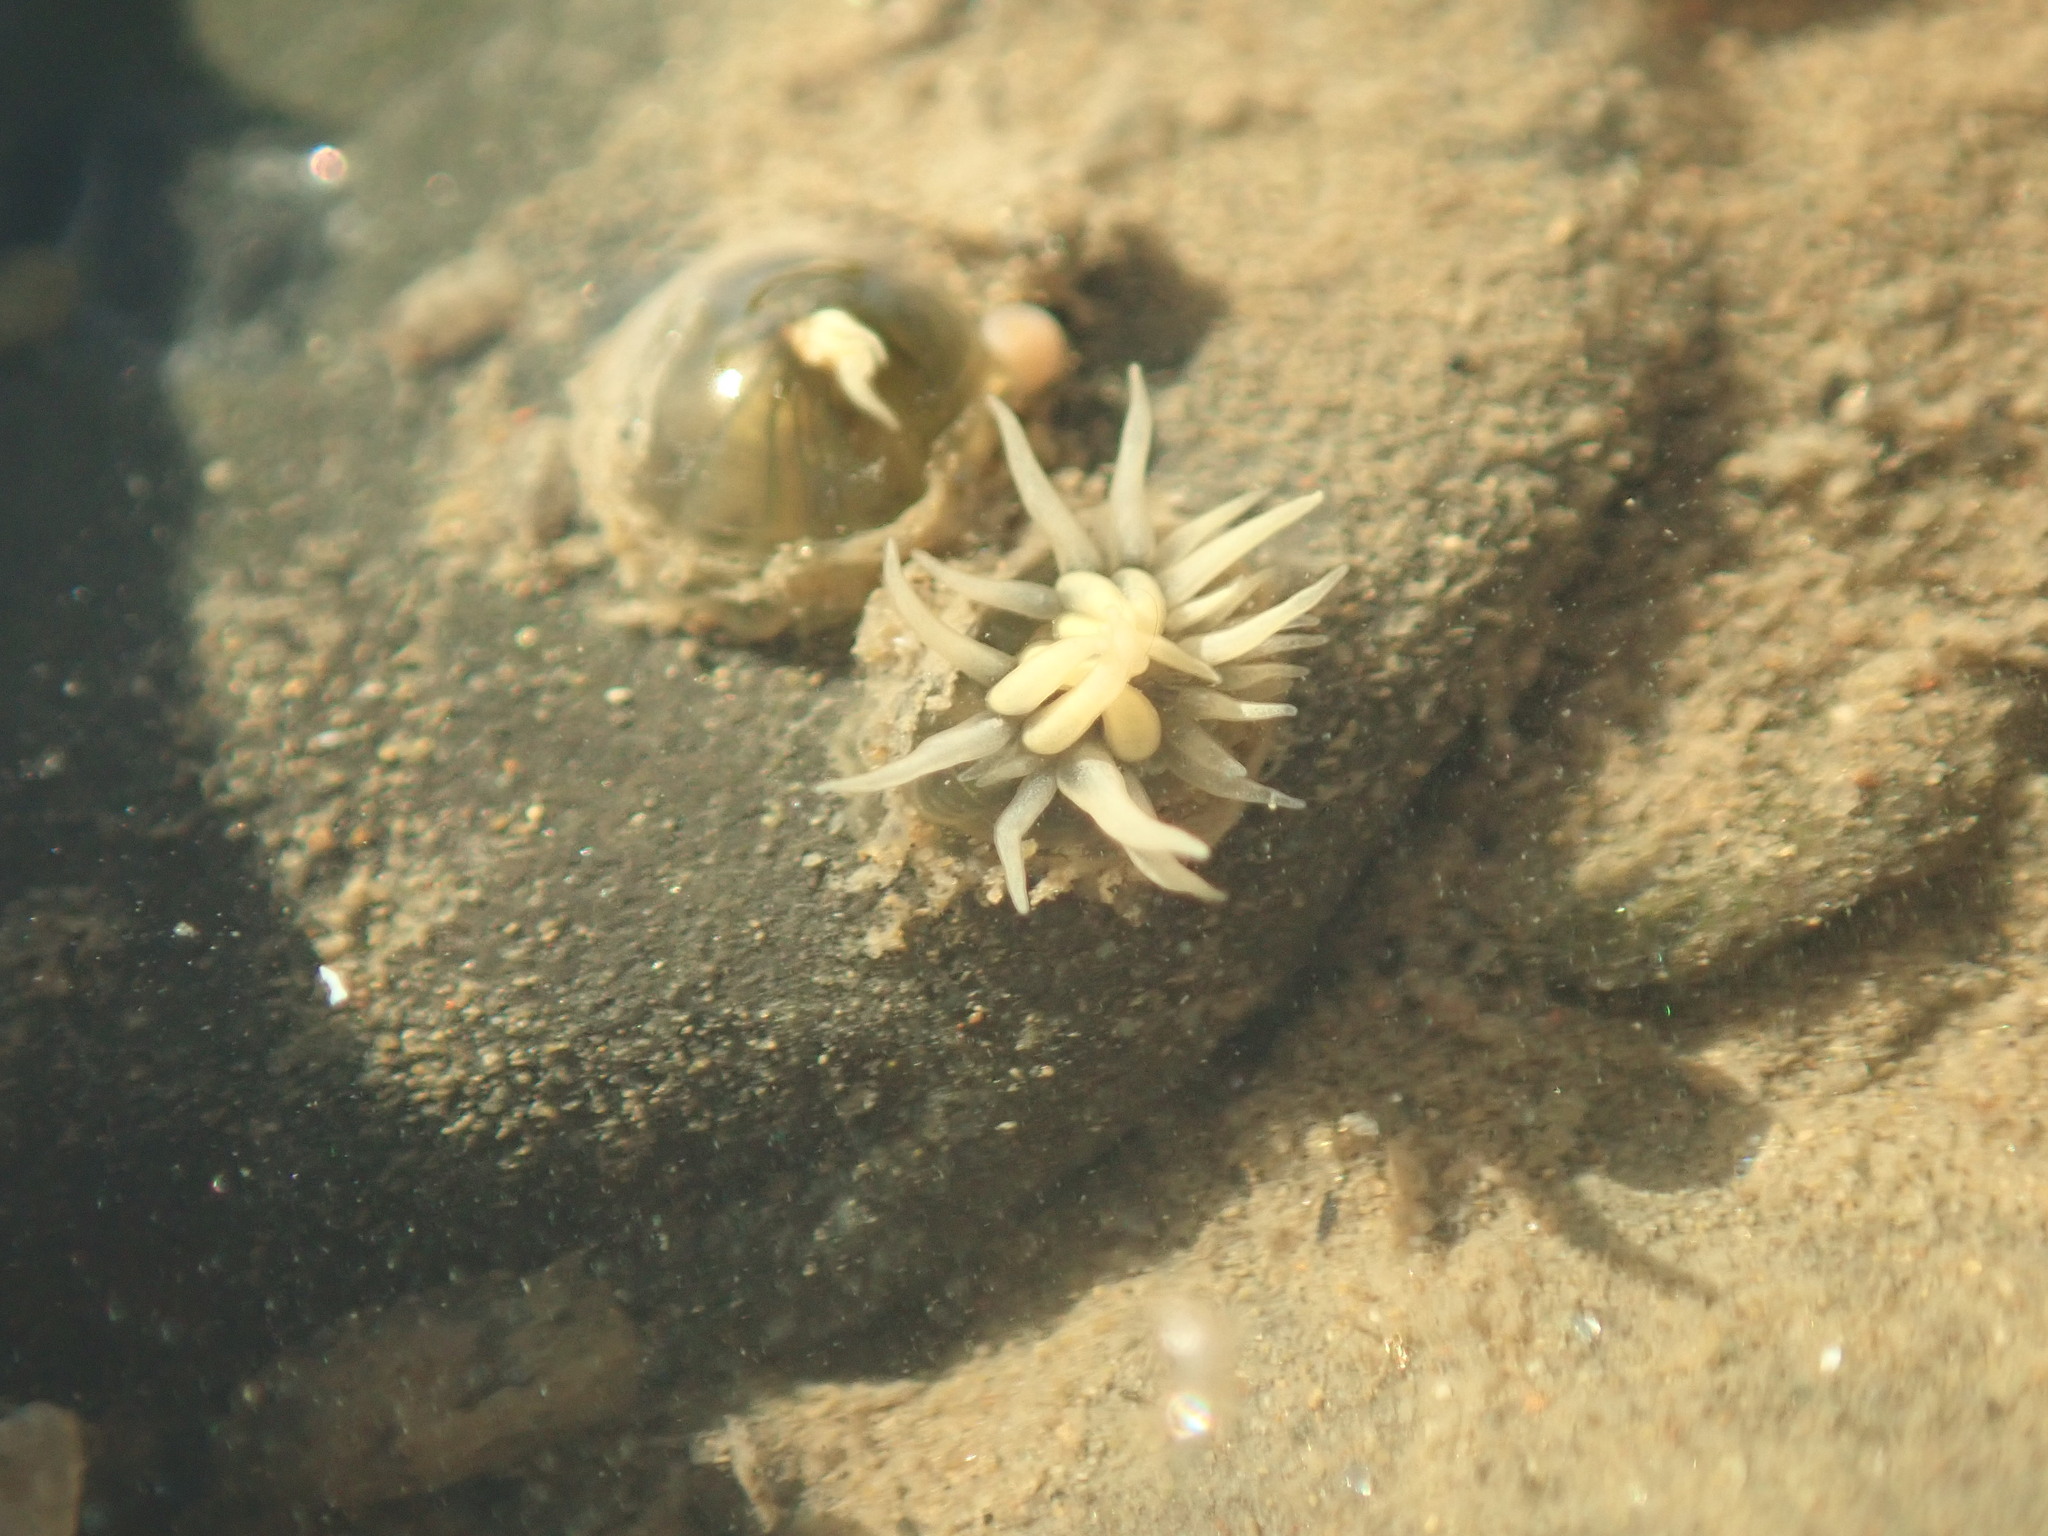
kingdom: Animalia
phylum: Cnidaria
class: Anthozoa
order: Actiniaria
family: Diadumenidae
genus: Diadumene
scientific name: Diadumene lineata
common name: Orange-striped anemone
